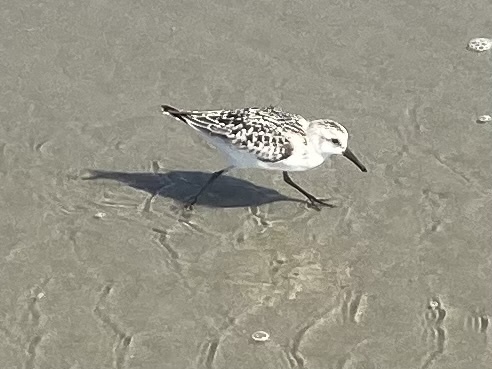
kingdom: Animalia
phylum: Chordata
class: Aves
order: Charadriiformes
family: Scolopacidae
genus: Calidris
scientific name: Calidris alba
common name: Sanderling
